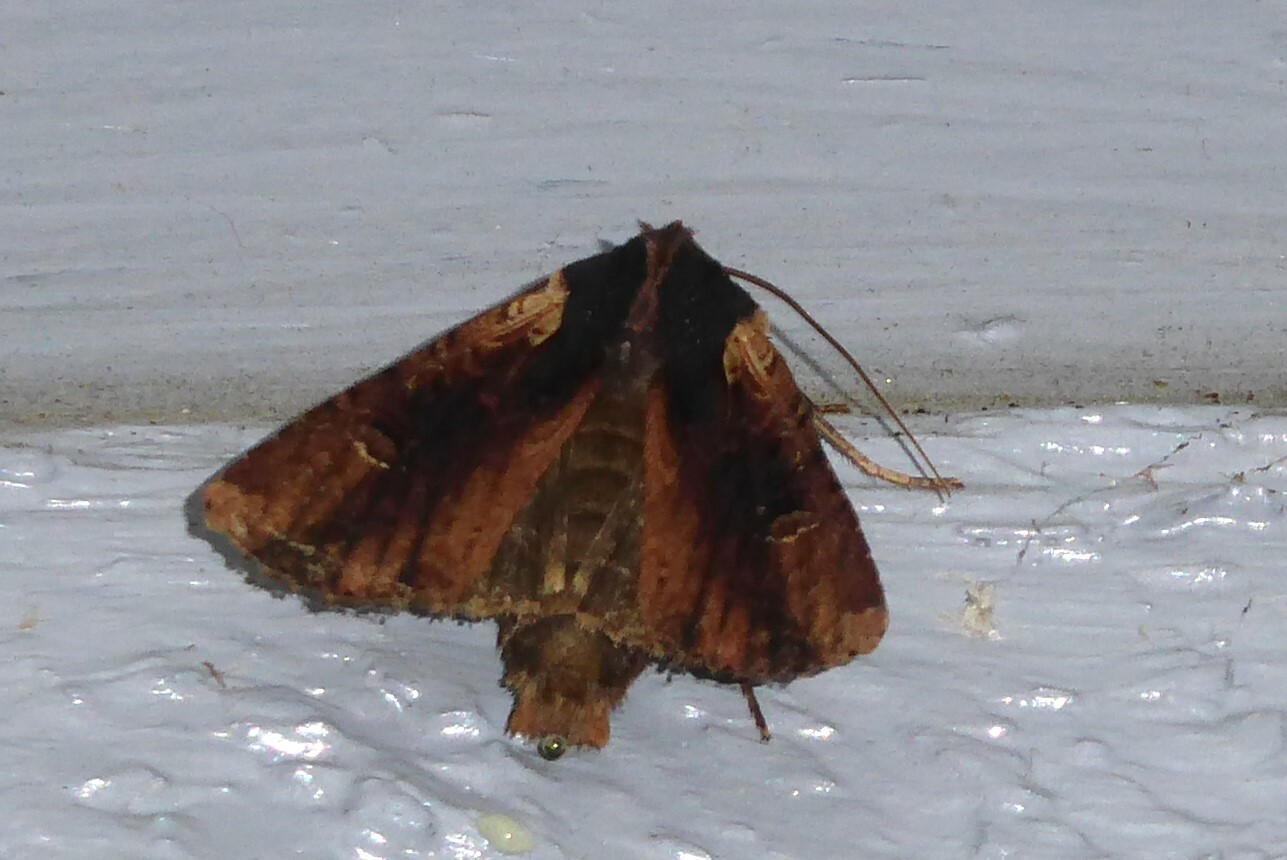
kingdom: Animalia
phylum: Arthropoda
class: Insecta
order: Lepidoptera
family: Noctuidae
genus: Ichneutica
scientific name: Ichneutica omoplaca
